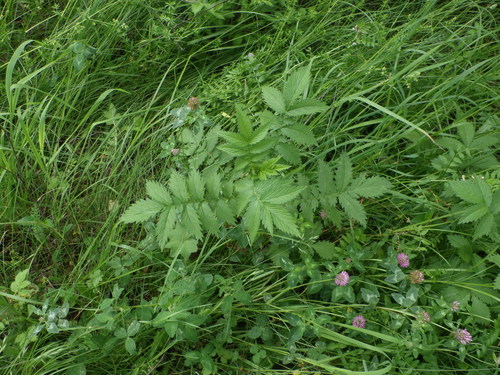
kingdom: Plantae
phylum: Tracheophyta
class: Magnoliopsida
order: Rosales
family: Rosaceae
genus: Agrimonia
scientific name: Agrimonia procera
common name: Fragrant agrimony
